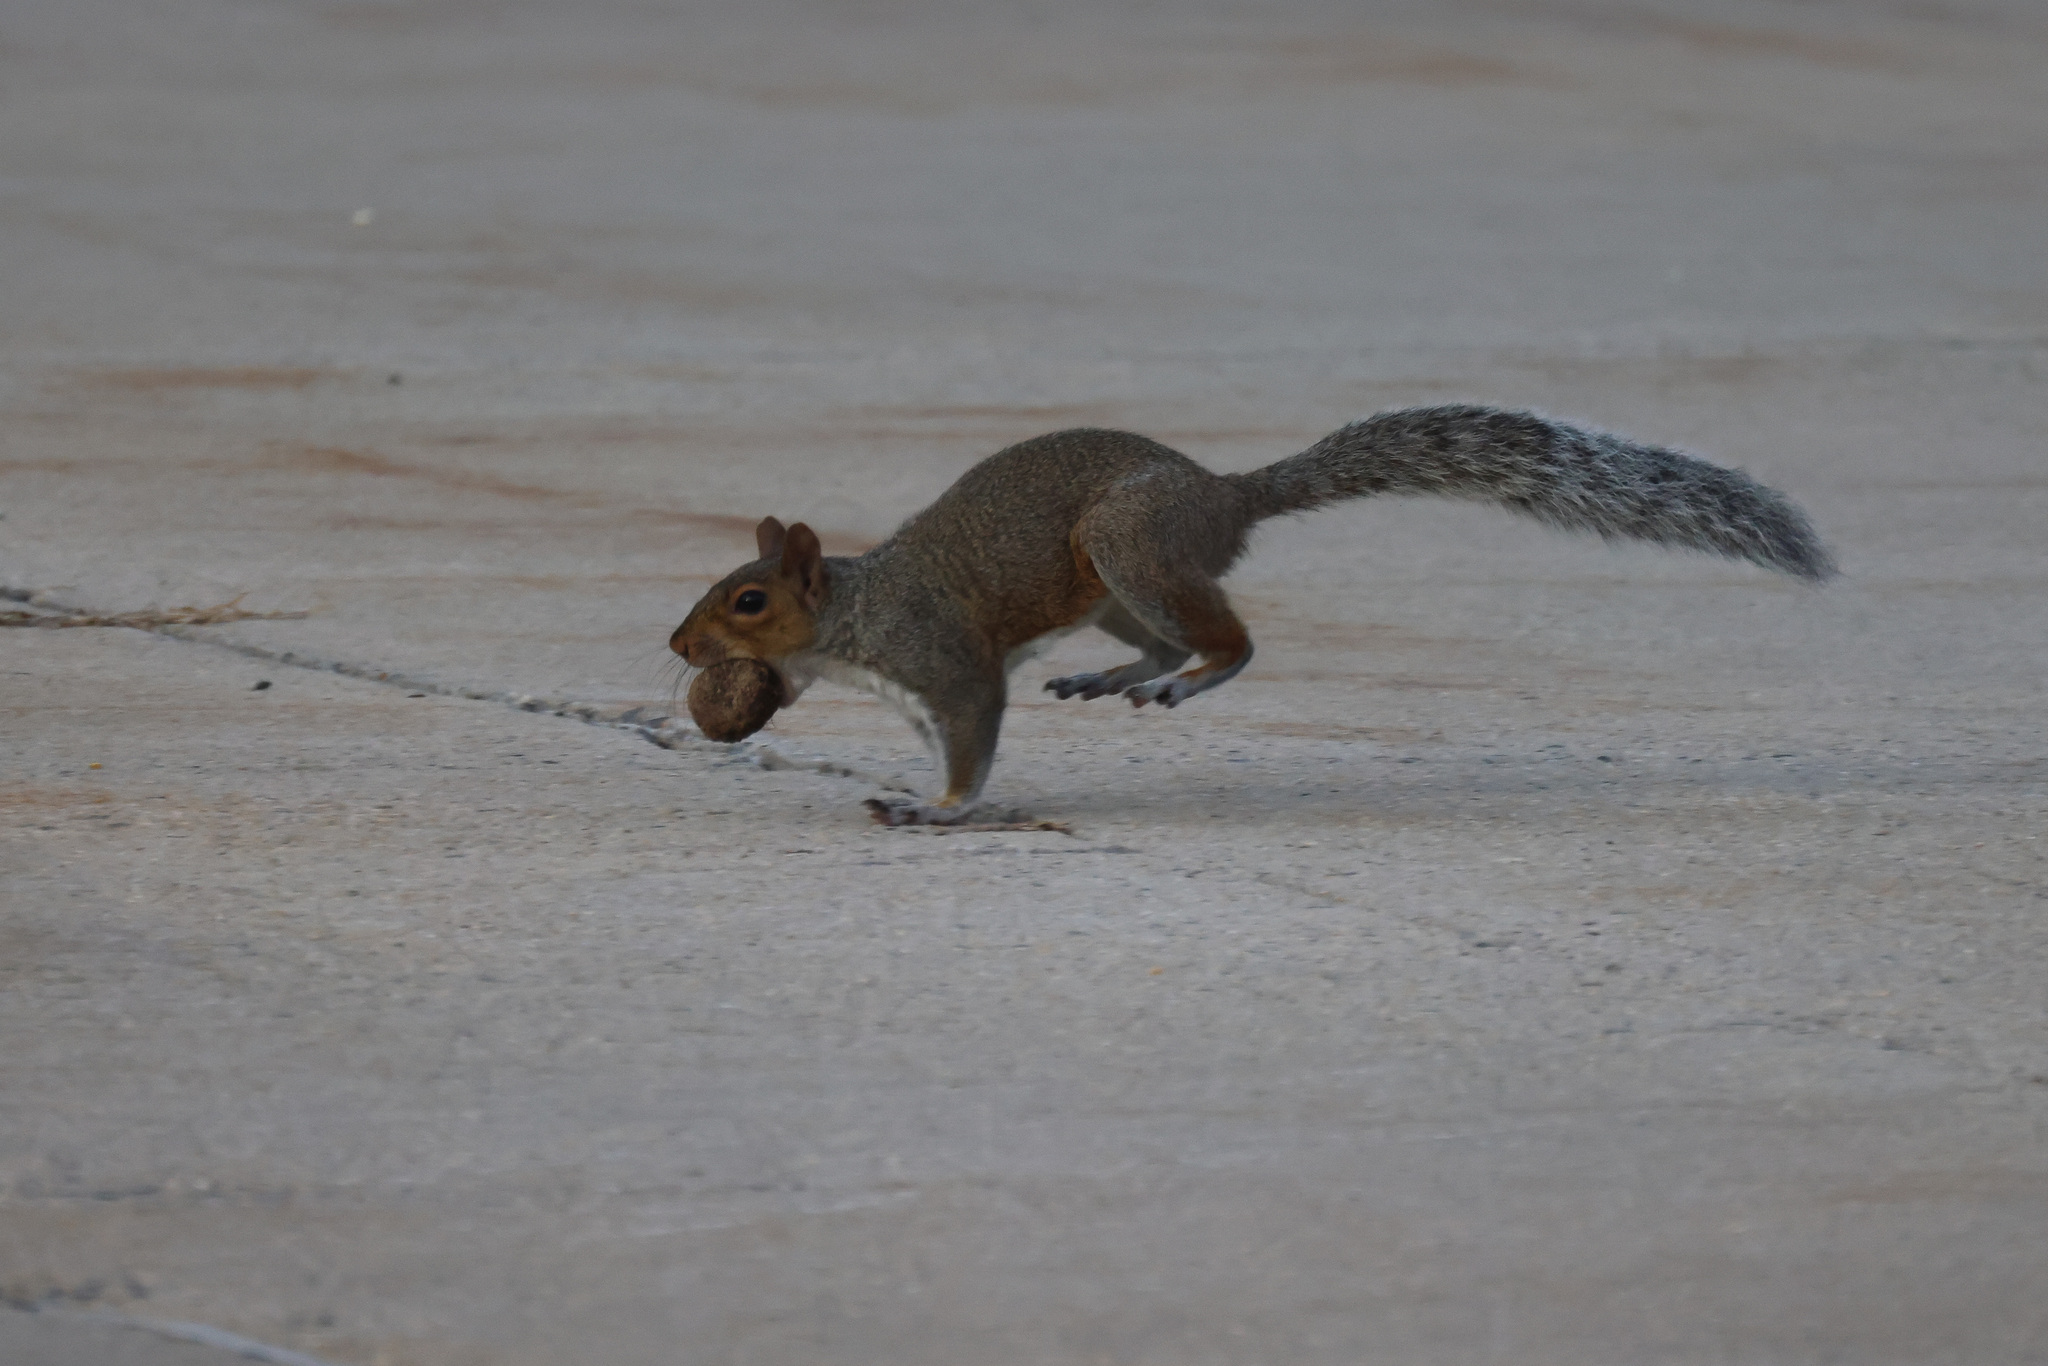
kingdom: Animalia
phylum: Chordata
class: Mammalia
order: Rodentia
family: Sciuridae
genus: Sciurus
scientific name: Sciurus carolinensis
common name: Eastern gray squirrel
